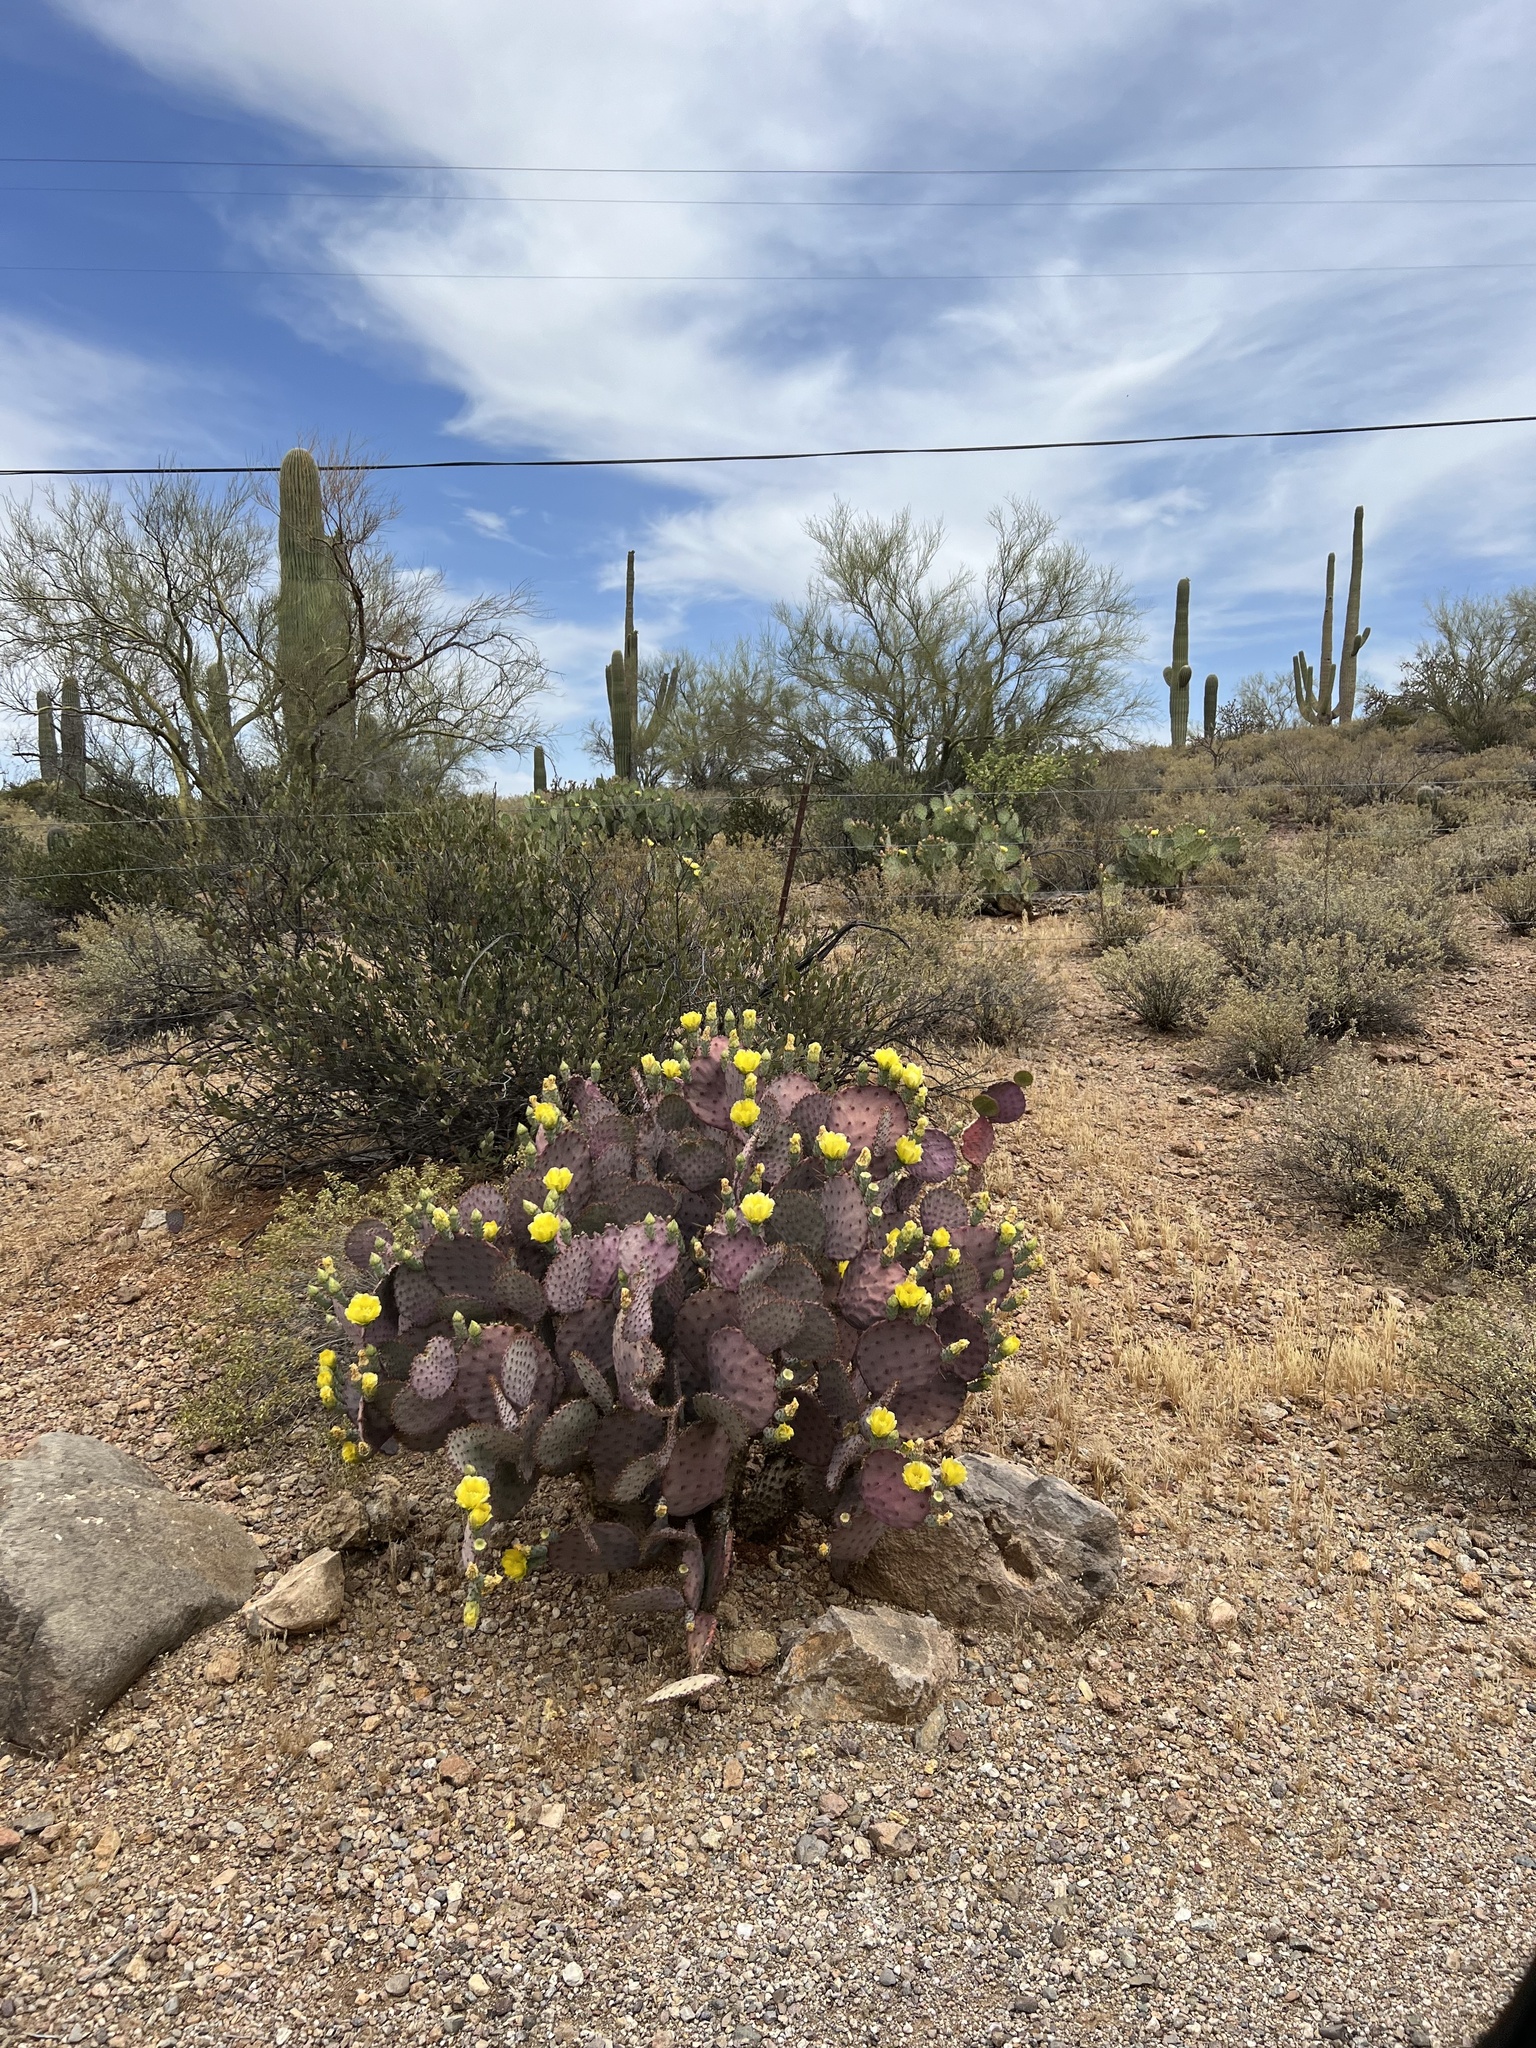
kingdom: Plantae
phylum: Tracheophyta
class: Magnoliopsida
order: Caryophyllales
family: Cactaceae
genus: Opuntia
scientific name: Opuntia gosseliniana
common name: Violet prickly-pear
